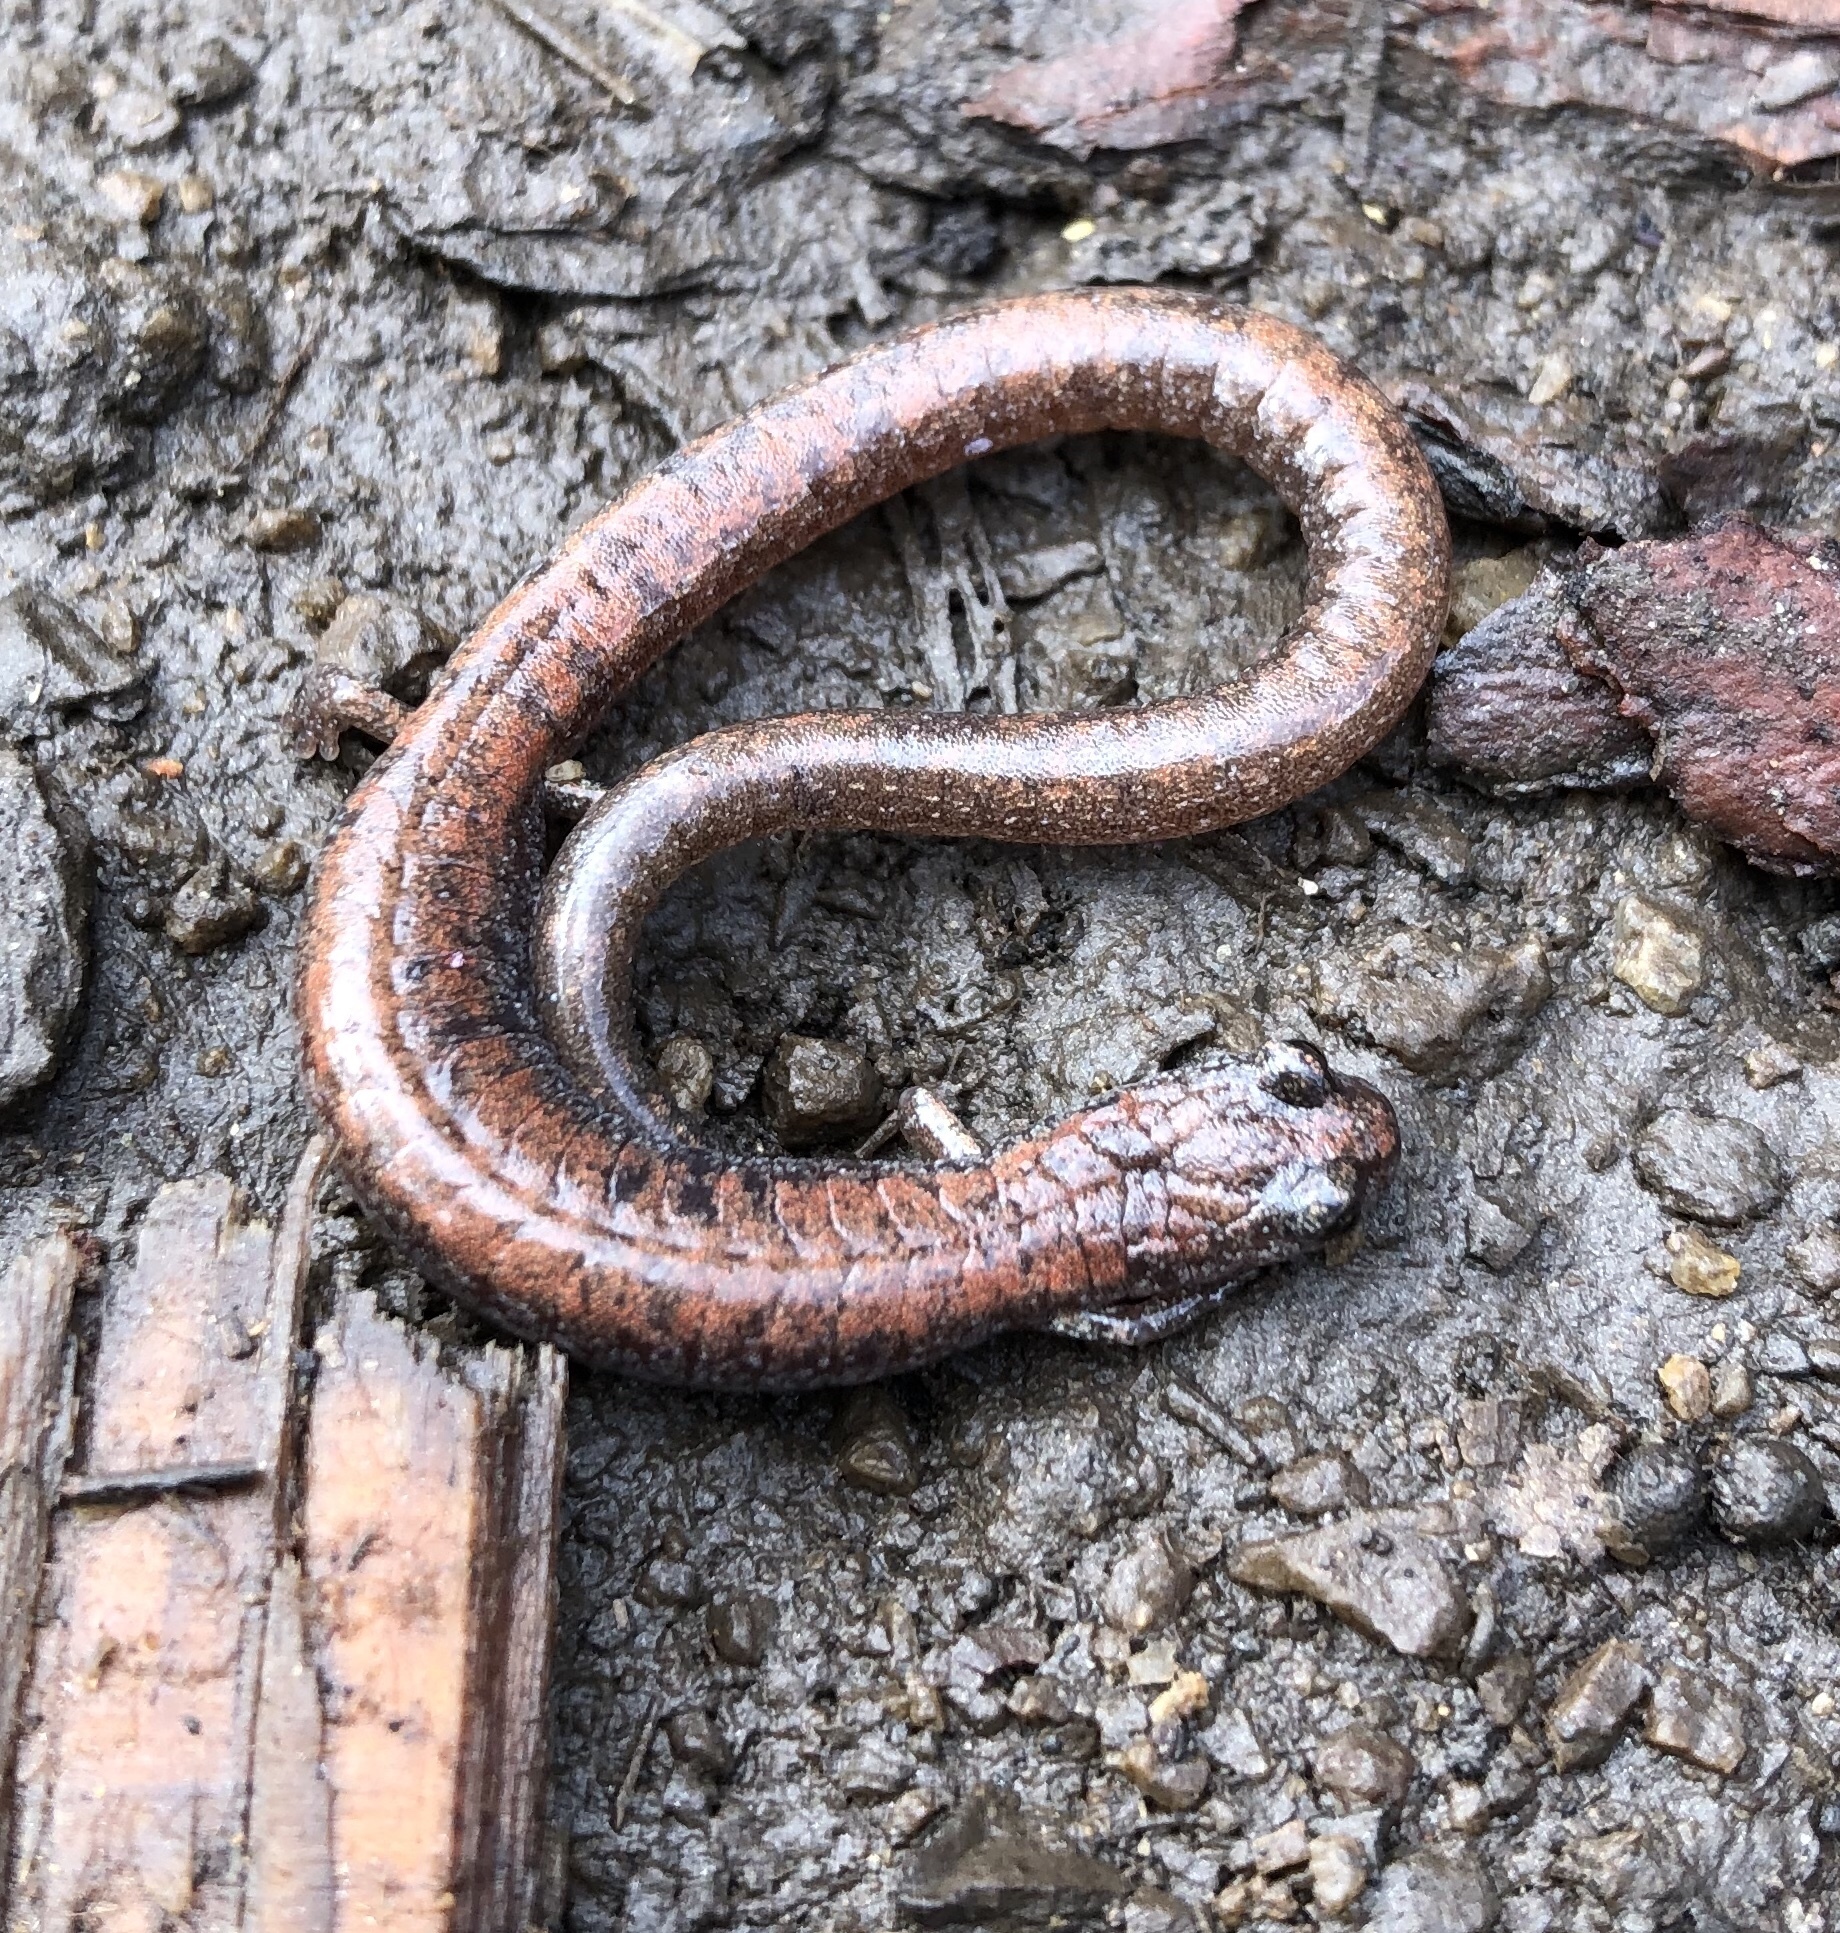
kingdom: Animalia
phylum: Chordata
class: Amphibia
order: Caudata
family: Plethodontidae
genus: Batrachoseps
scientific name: Batrachoseps major
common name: Garden slender salamander
